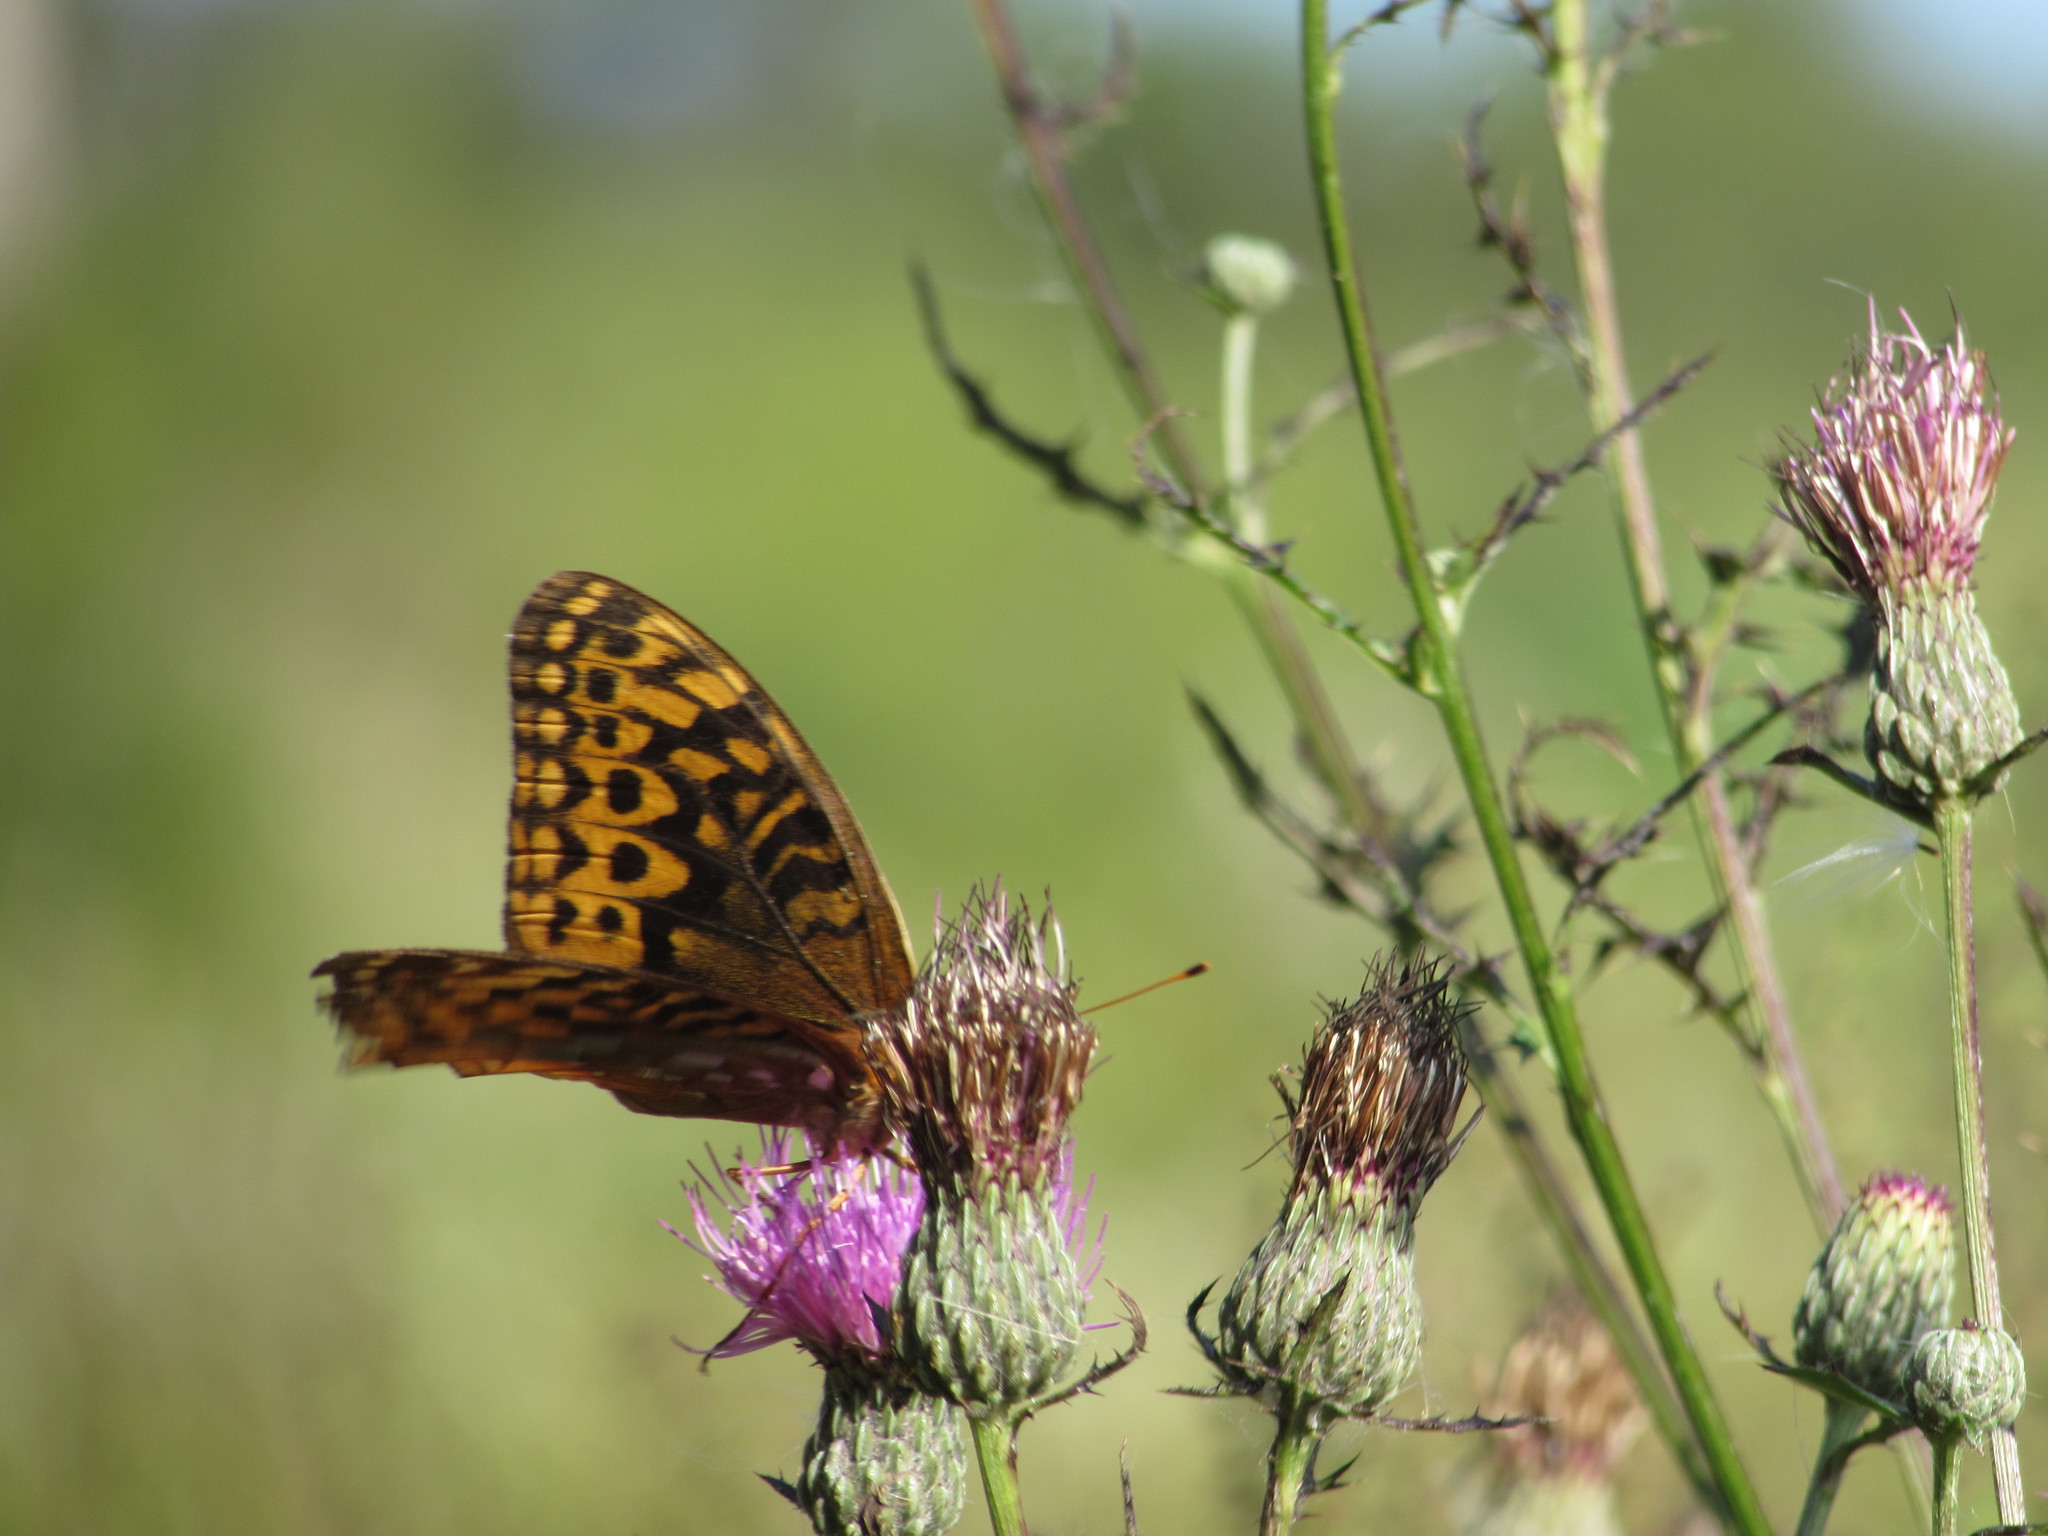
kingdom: Animalia
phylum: Arthropoda
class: Insecta
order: Lepidoptera
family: Nymphalidae
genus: Speyeria
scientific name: Speyeria cybele
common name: Great spangled fritillary
